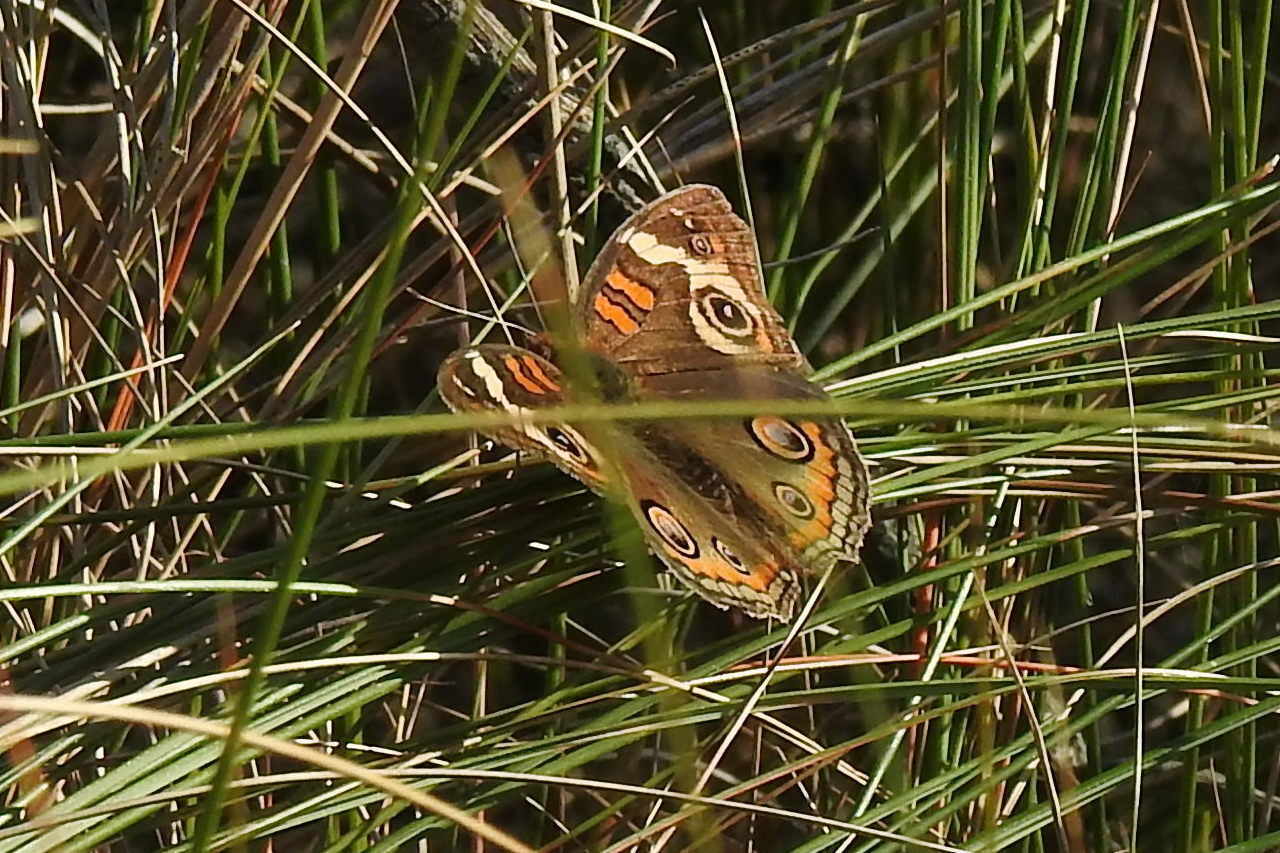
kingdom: Animalia
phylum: Arthropoda
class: Insecta
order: Lepidoptera
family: Nymphalidae
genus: Junonia
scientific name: Junonia coenia
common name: Common buckeye
